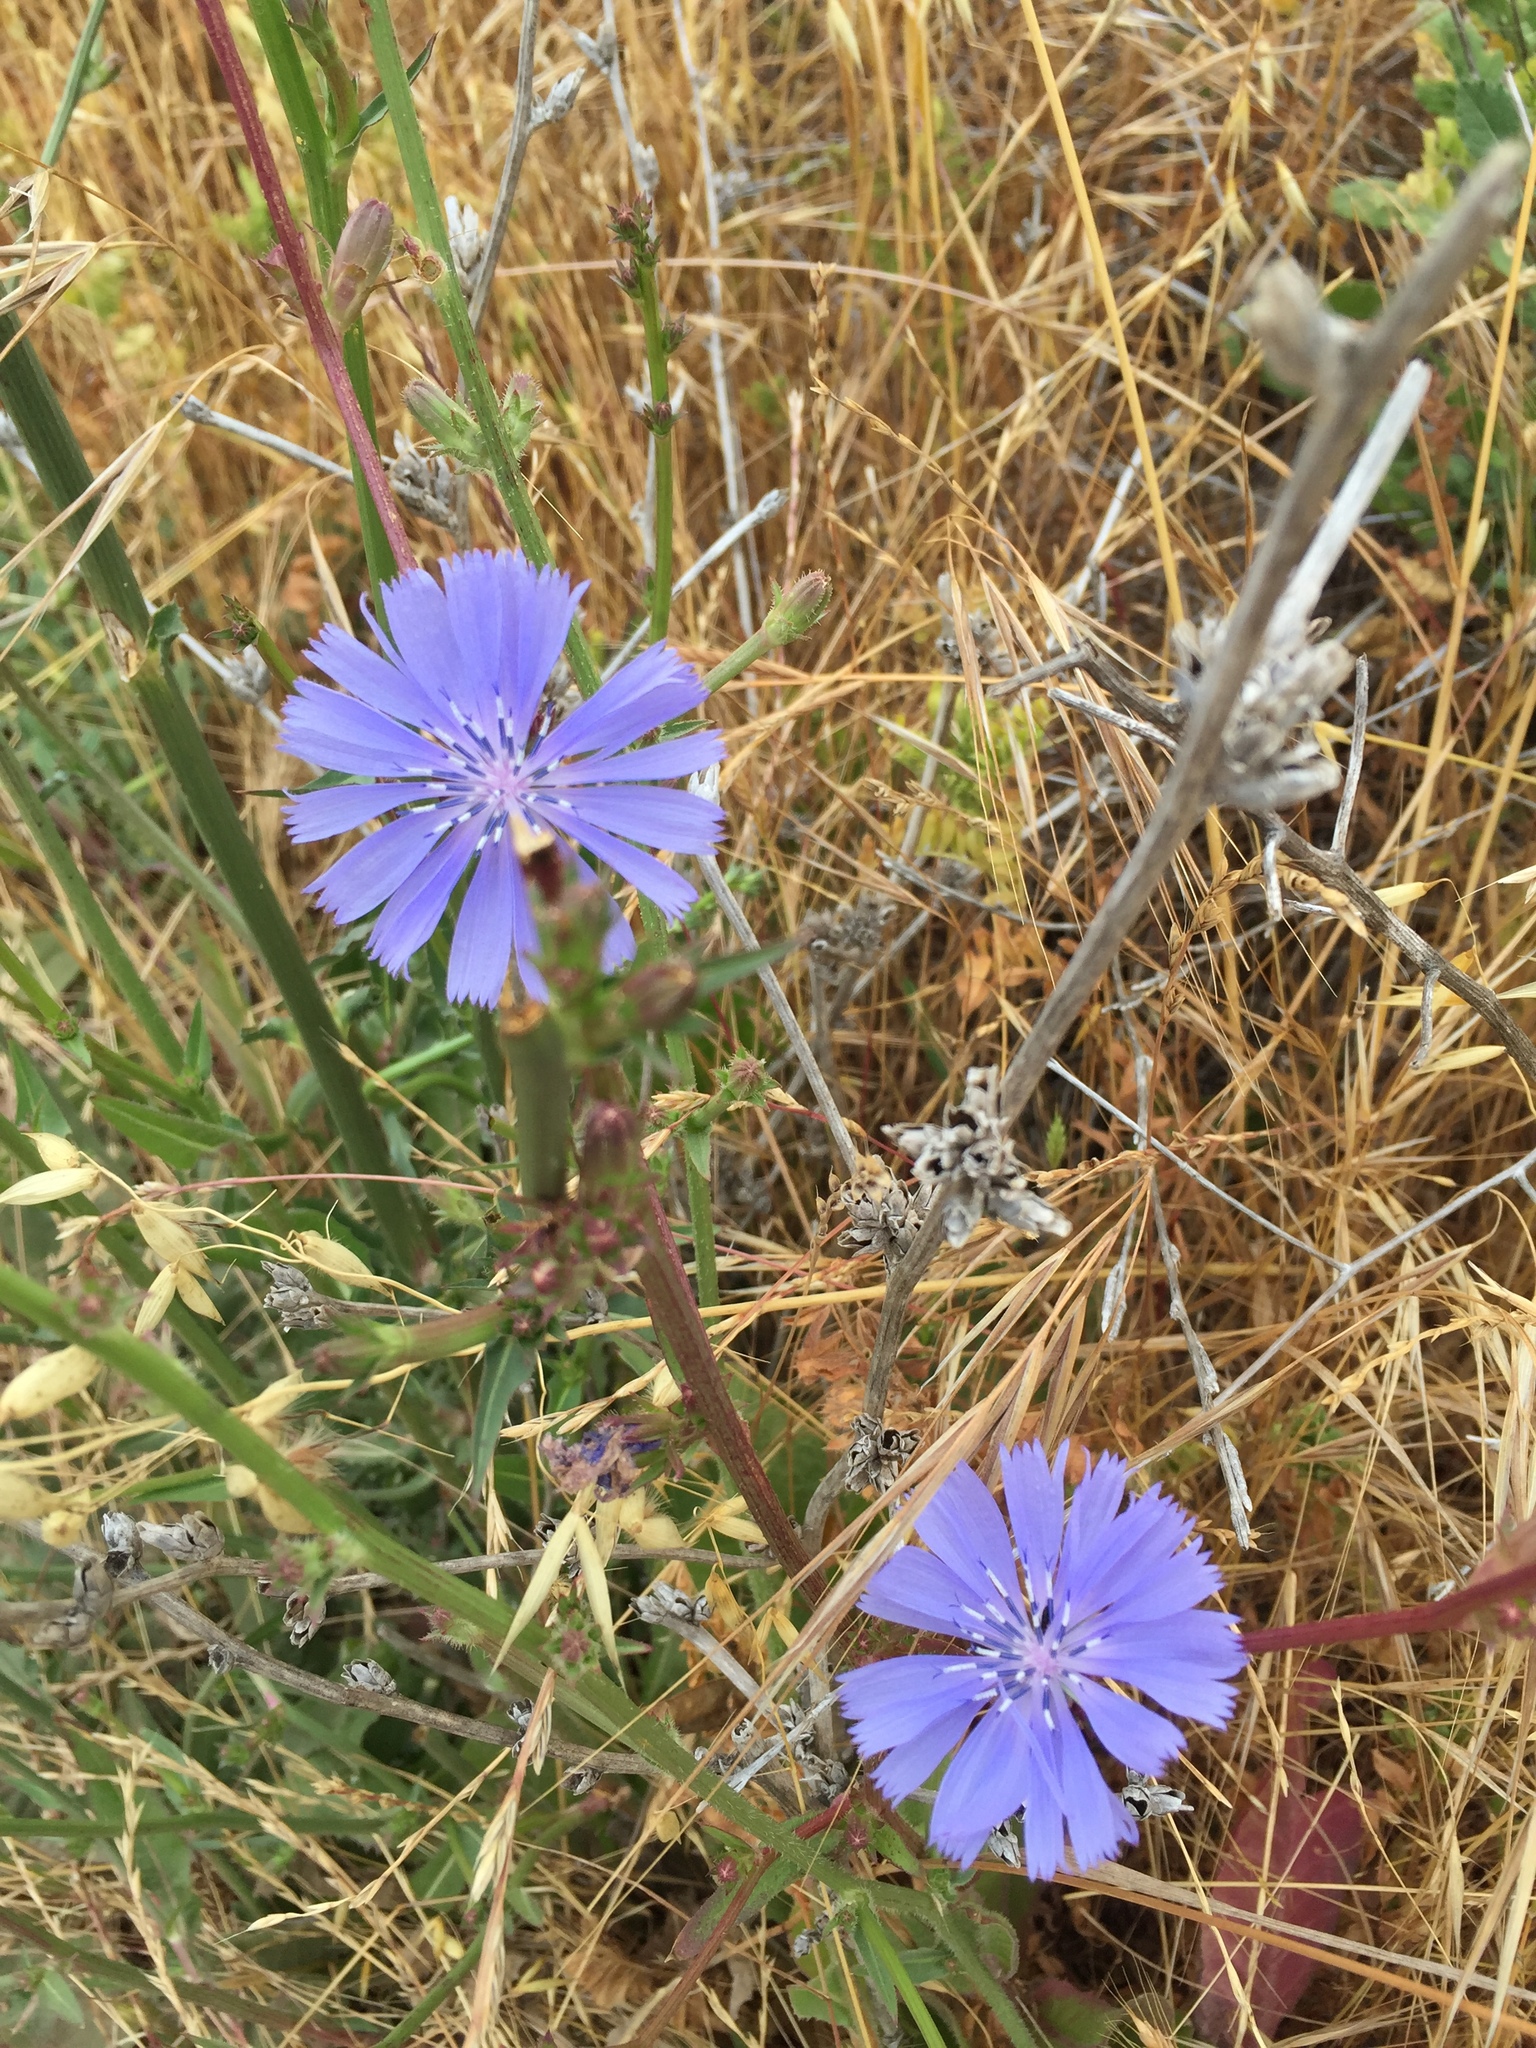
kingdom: Plantae
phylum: Tracheophyta
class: Magnoliopsida
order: Asterales
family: Asteraceae
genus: Cichorium
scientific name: Cichorium intybus
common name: Chicory
